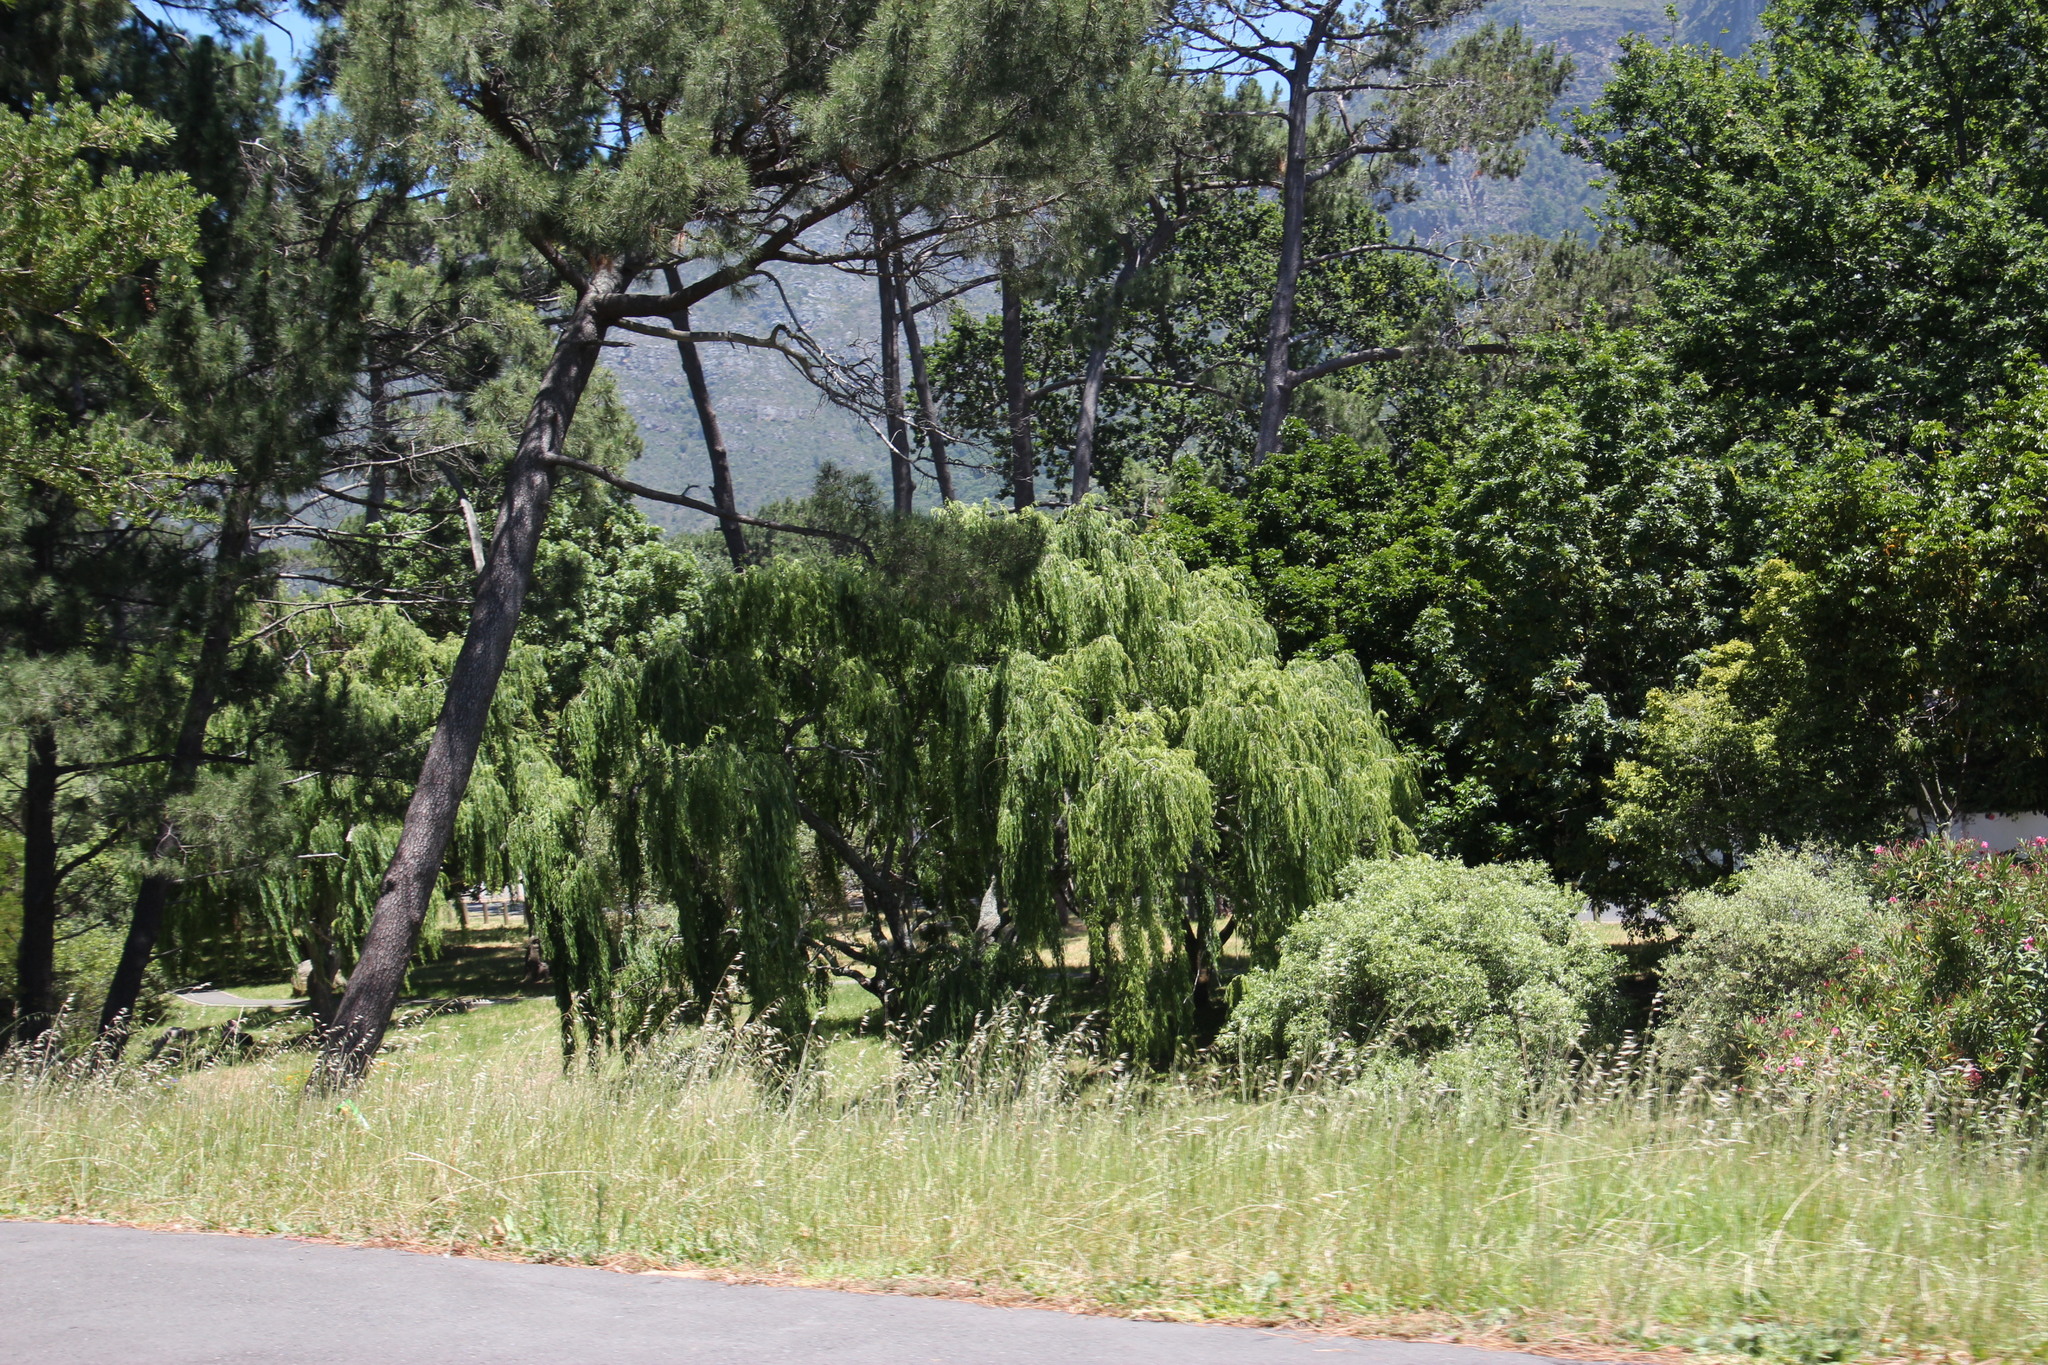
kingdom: Plantae
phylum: Tracheophyta
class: Magnoliopsida
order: Malpighiales
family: Salicaceae
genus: Salix
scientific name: Salix babylonica
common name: Weeping willow
